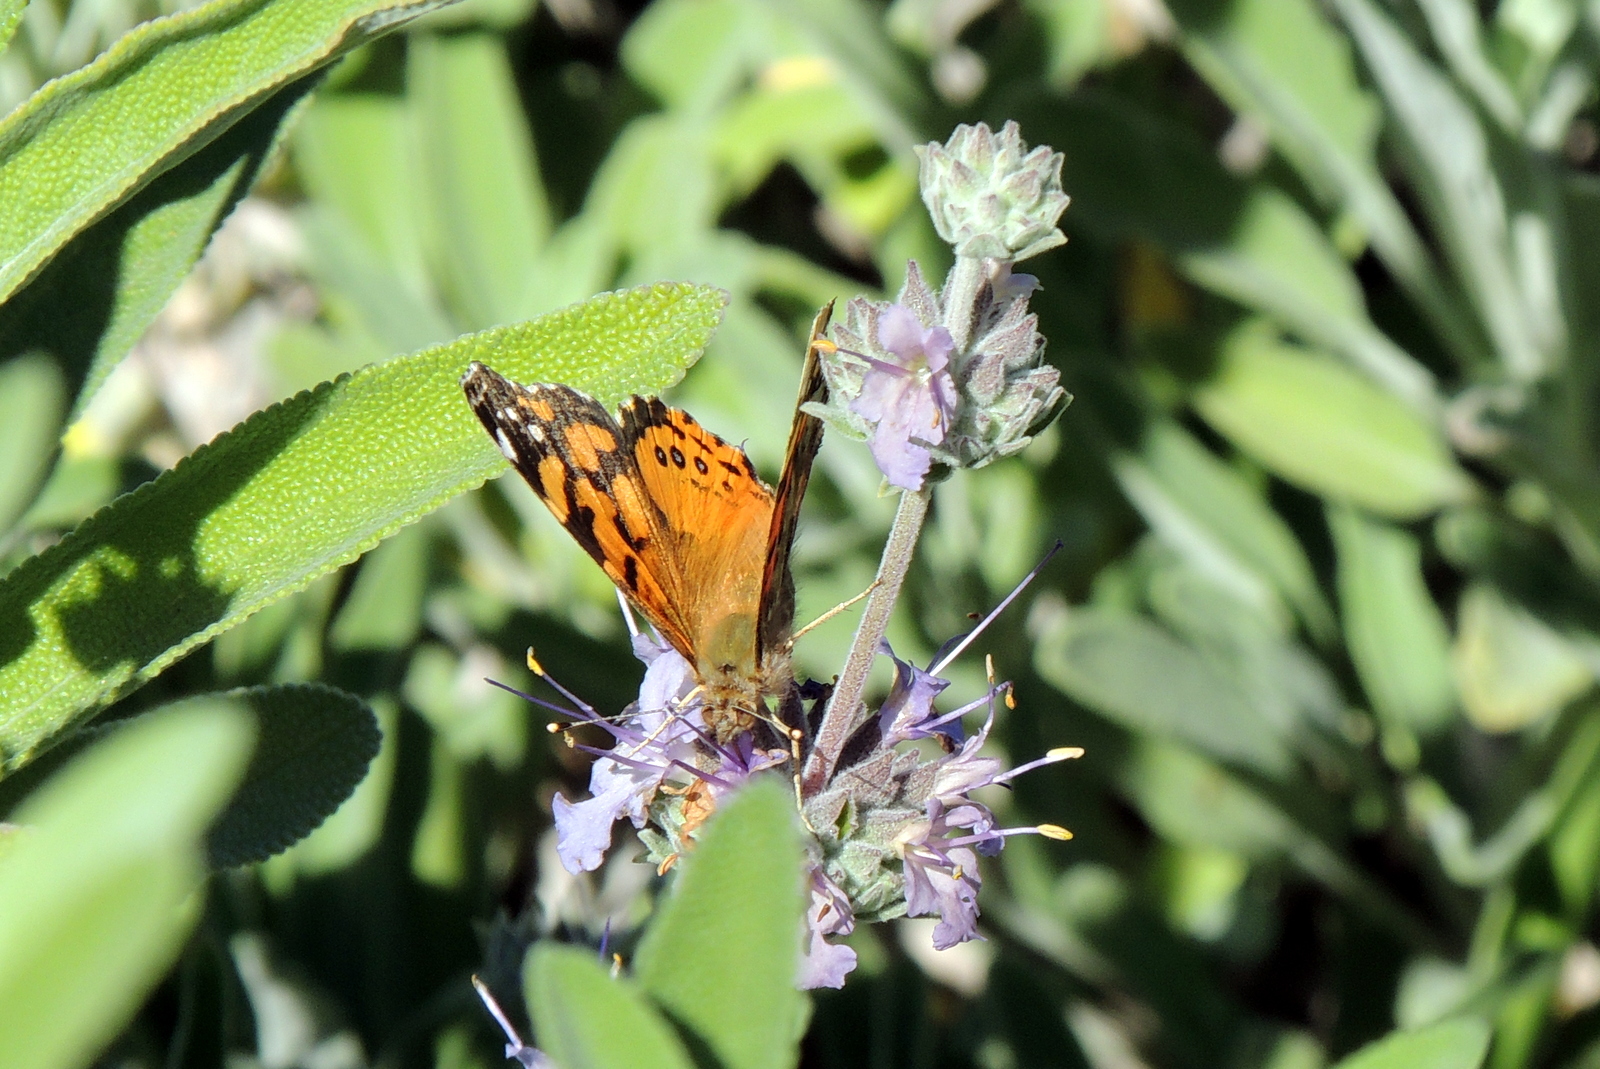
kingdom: Animalia
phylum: Arthropoda
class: Insecta
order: Lepidoptera
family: Nymphalidae
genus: Vanessa
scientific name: Vanessa annabella
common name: West coast lady
